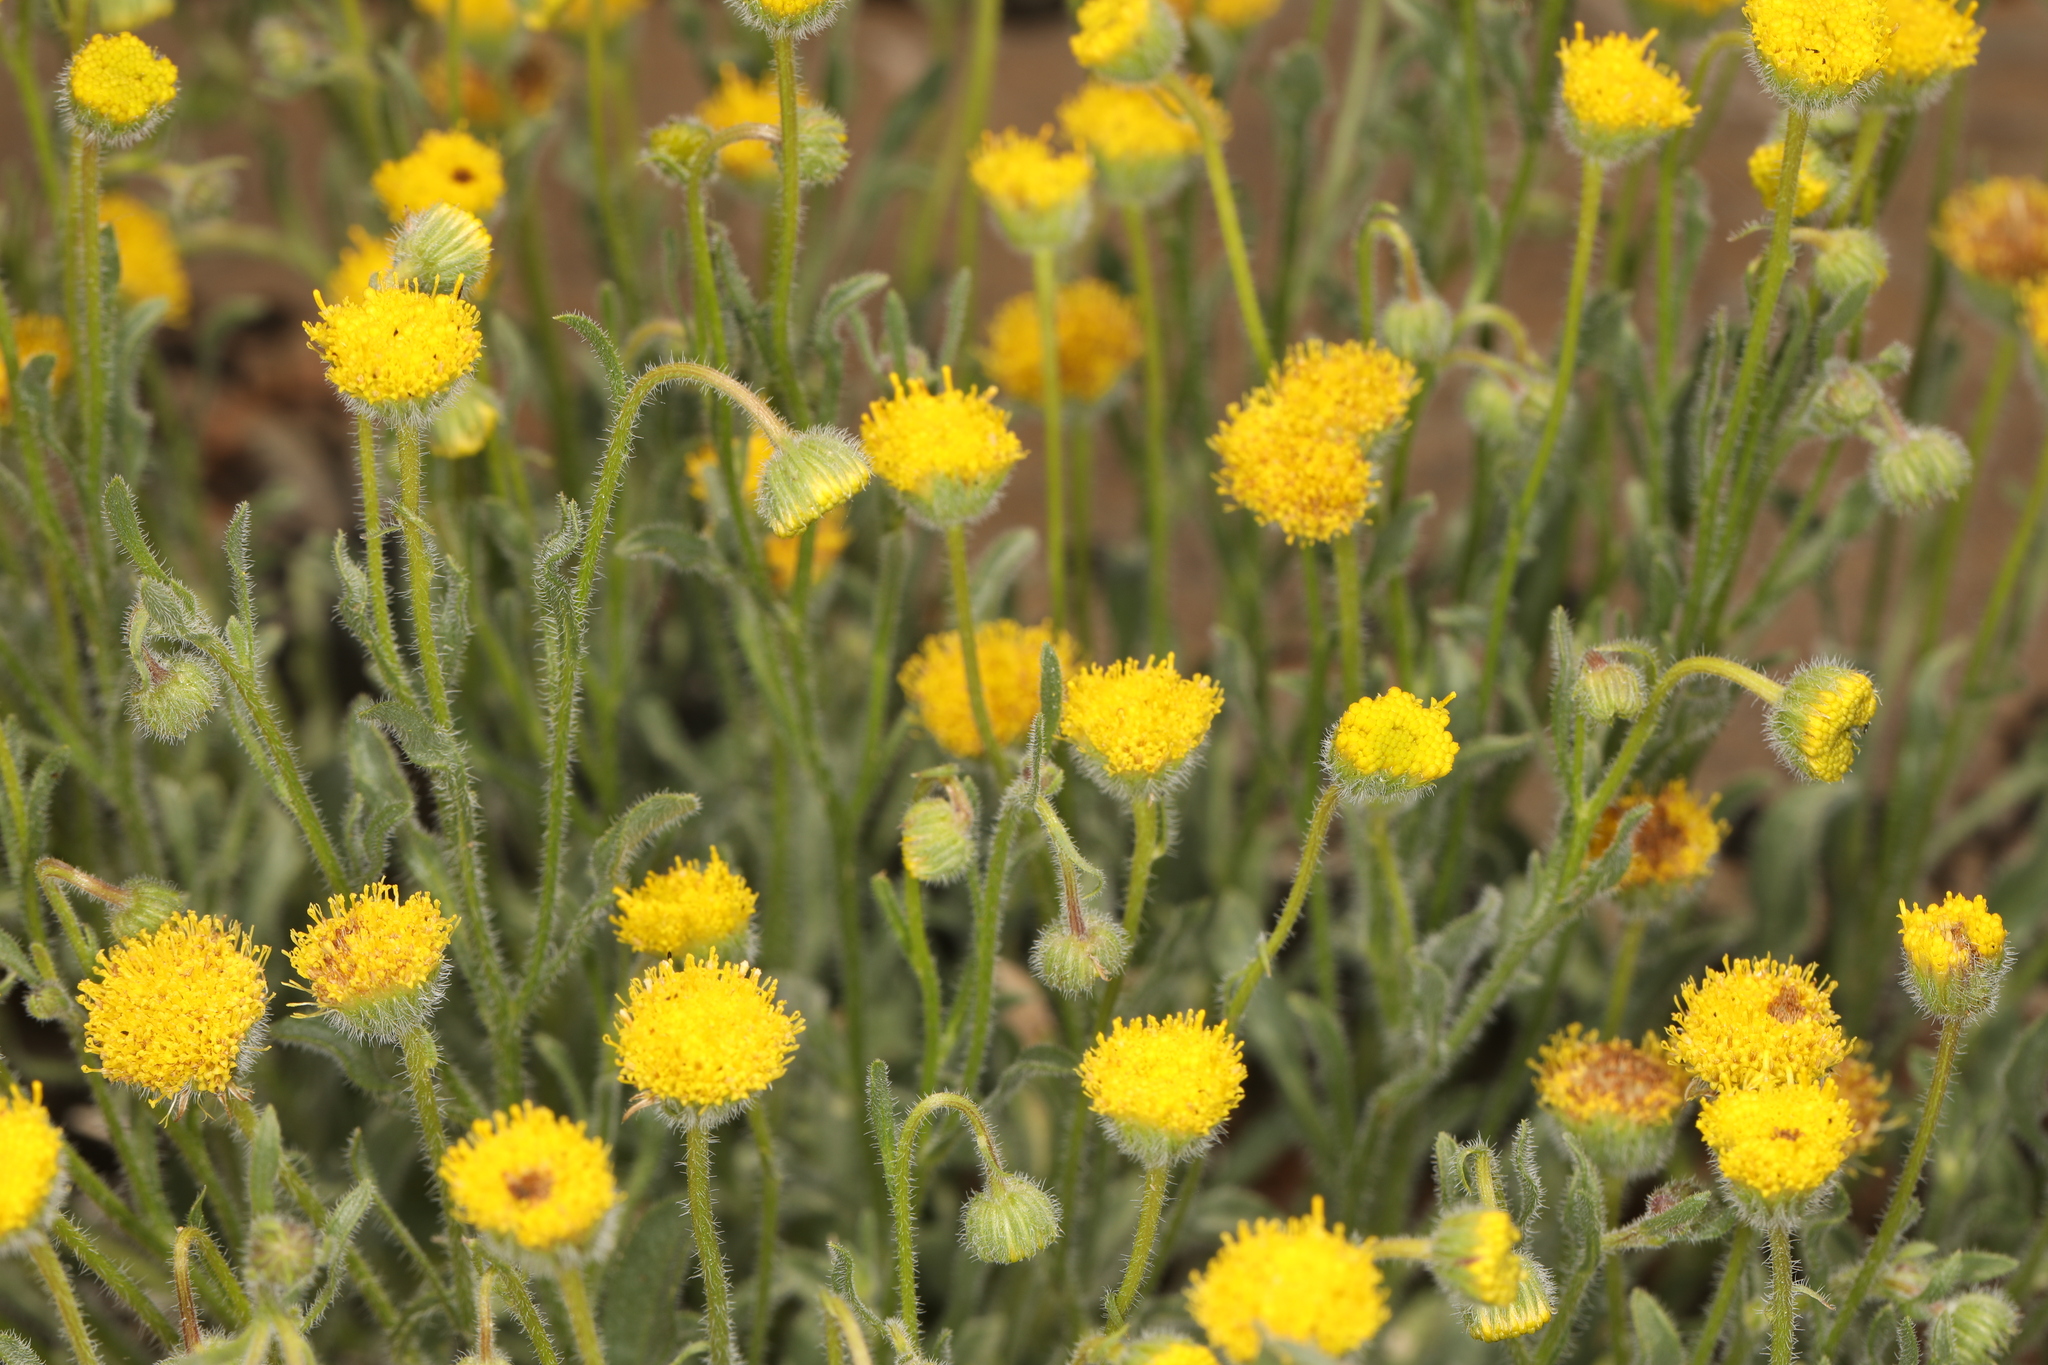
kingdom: Plantae
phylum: Tracheophyta
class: Magnoliopsida
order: Asterales
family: Asteraceae
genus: Erigeron
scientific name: Erigeron aphanactis
